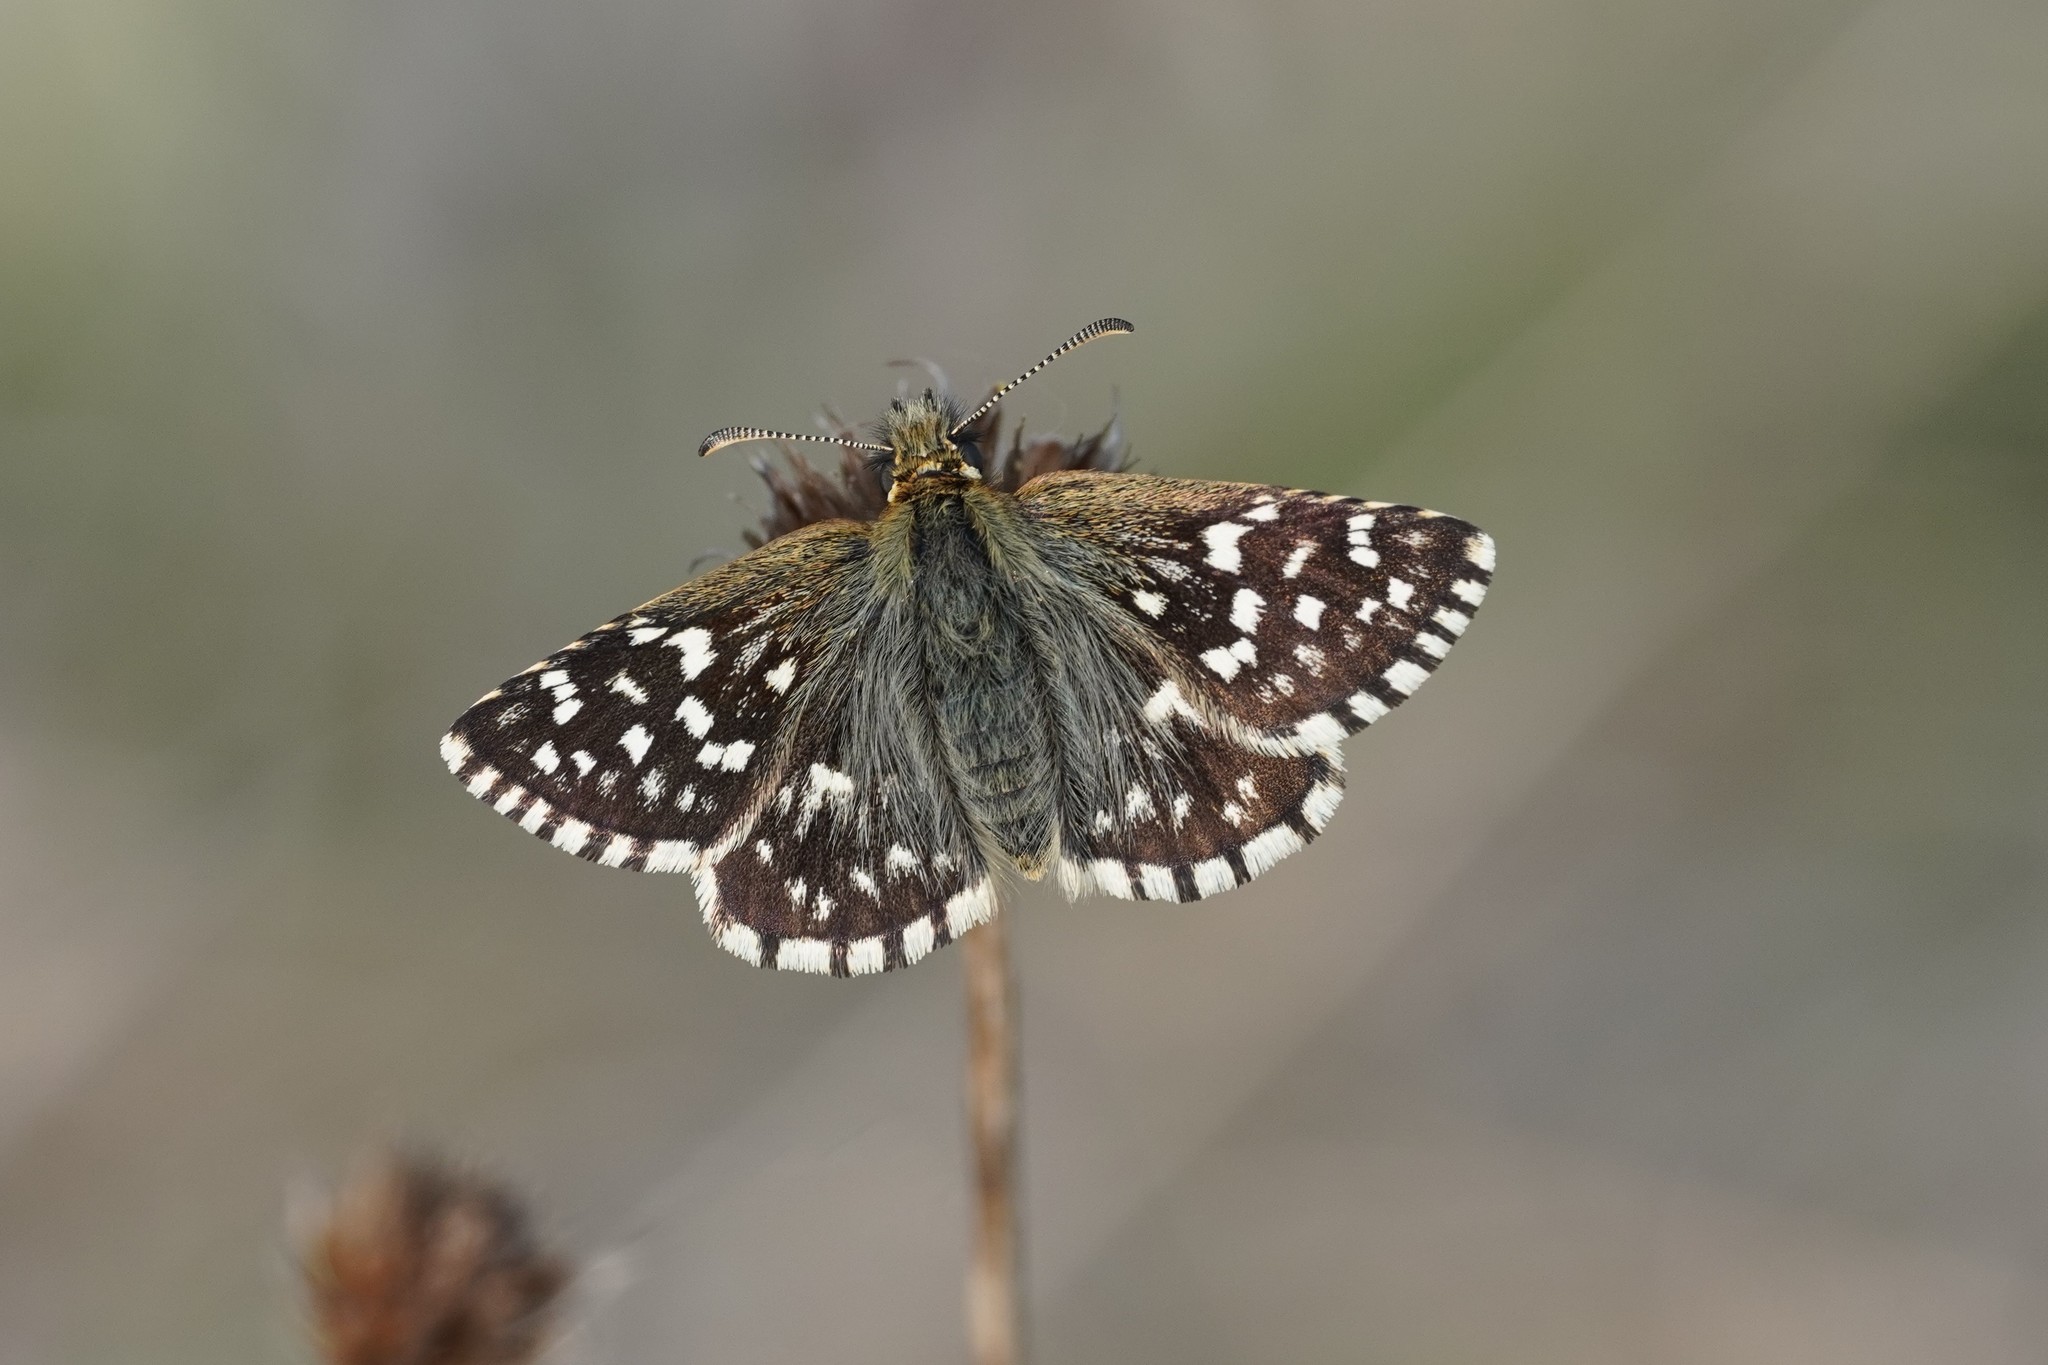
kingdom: Animalia
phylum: Arthropoda
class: Insecta
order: Lepidoptera
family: Hesperiidae
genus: Pyrgus
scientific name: Pyrgus malvae
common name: Grizzled skipper
